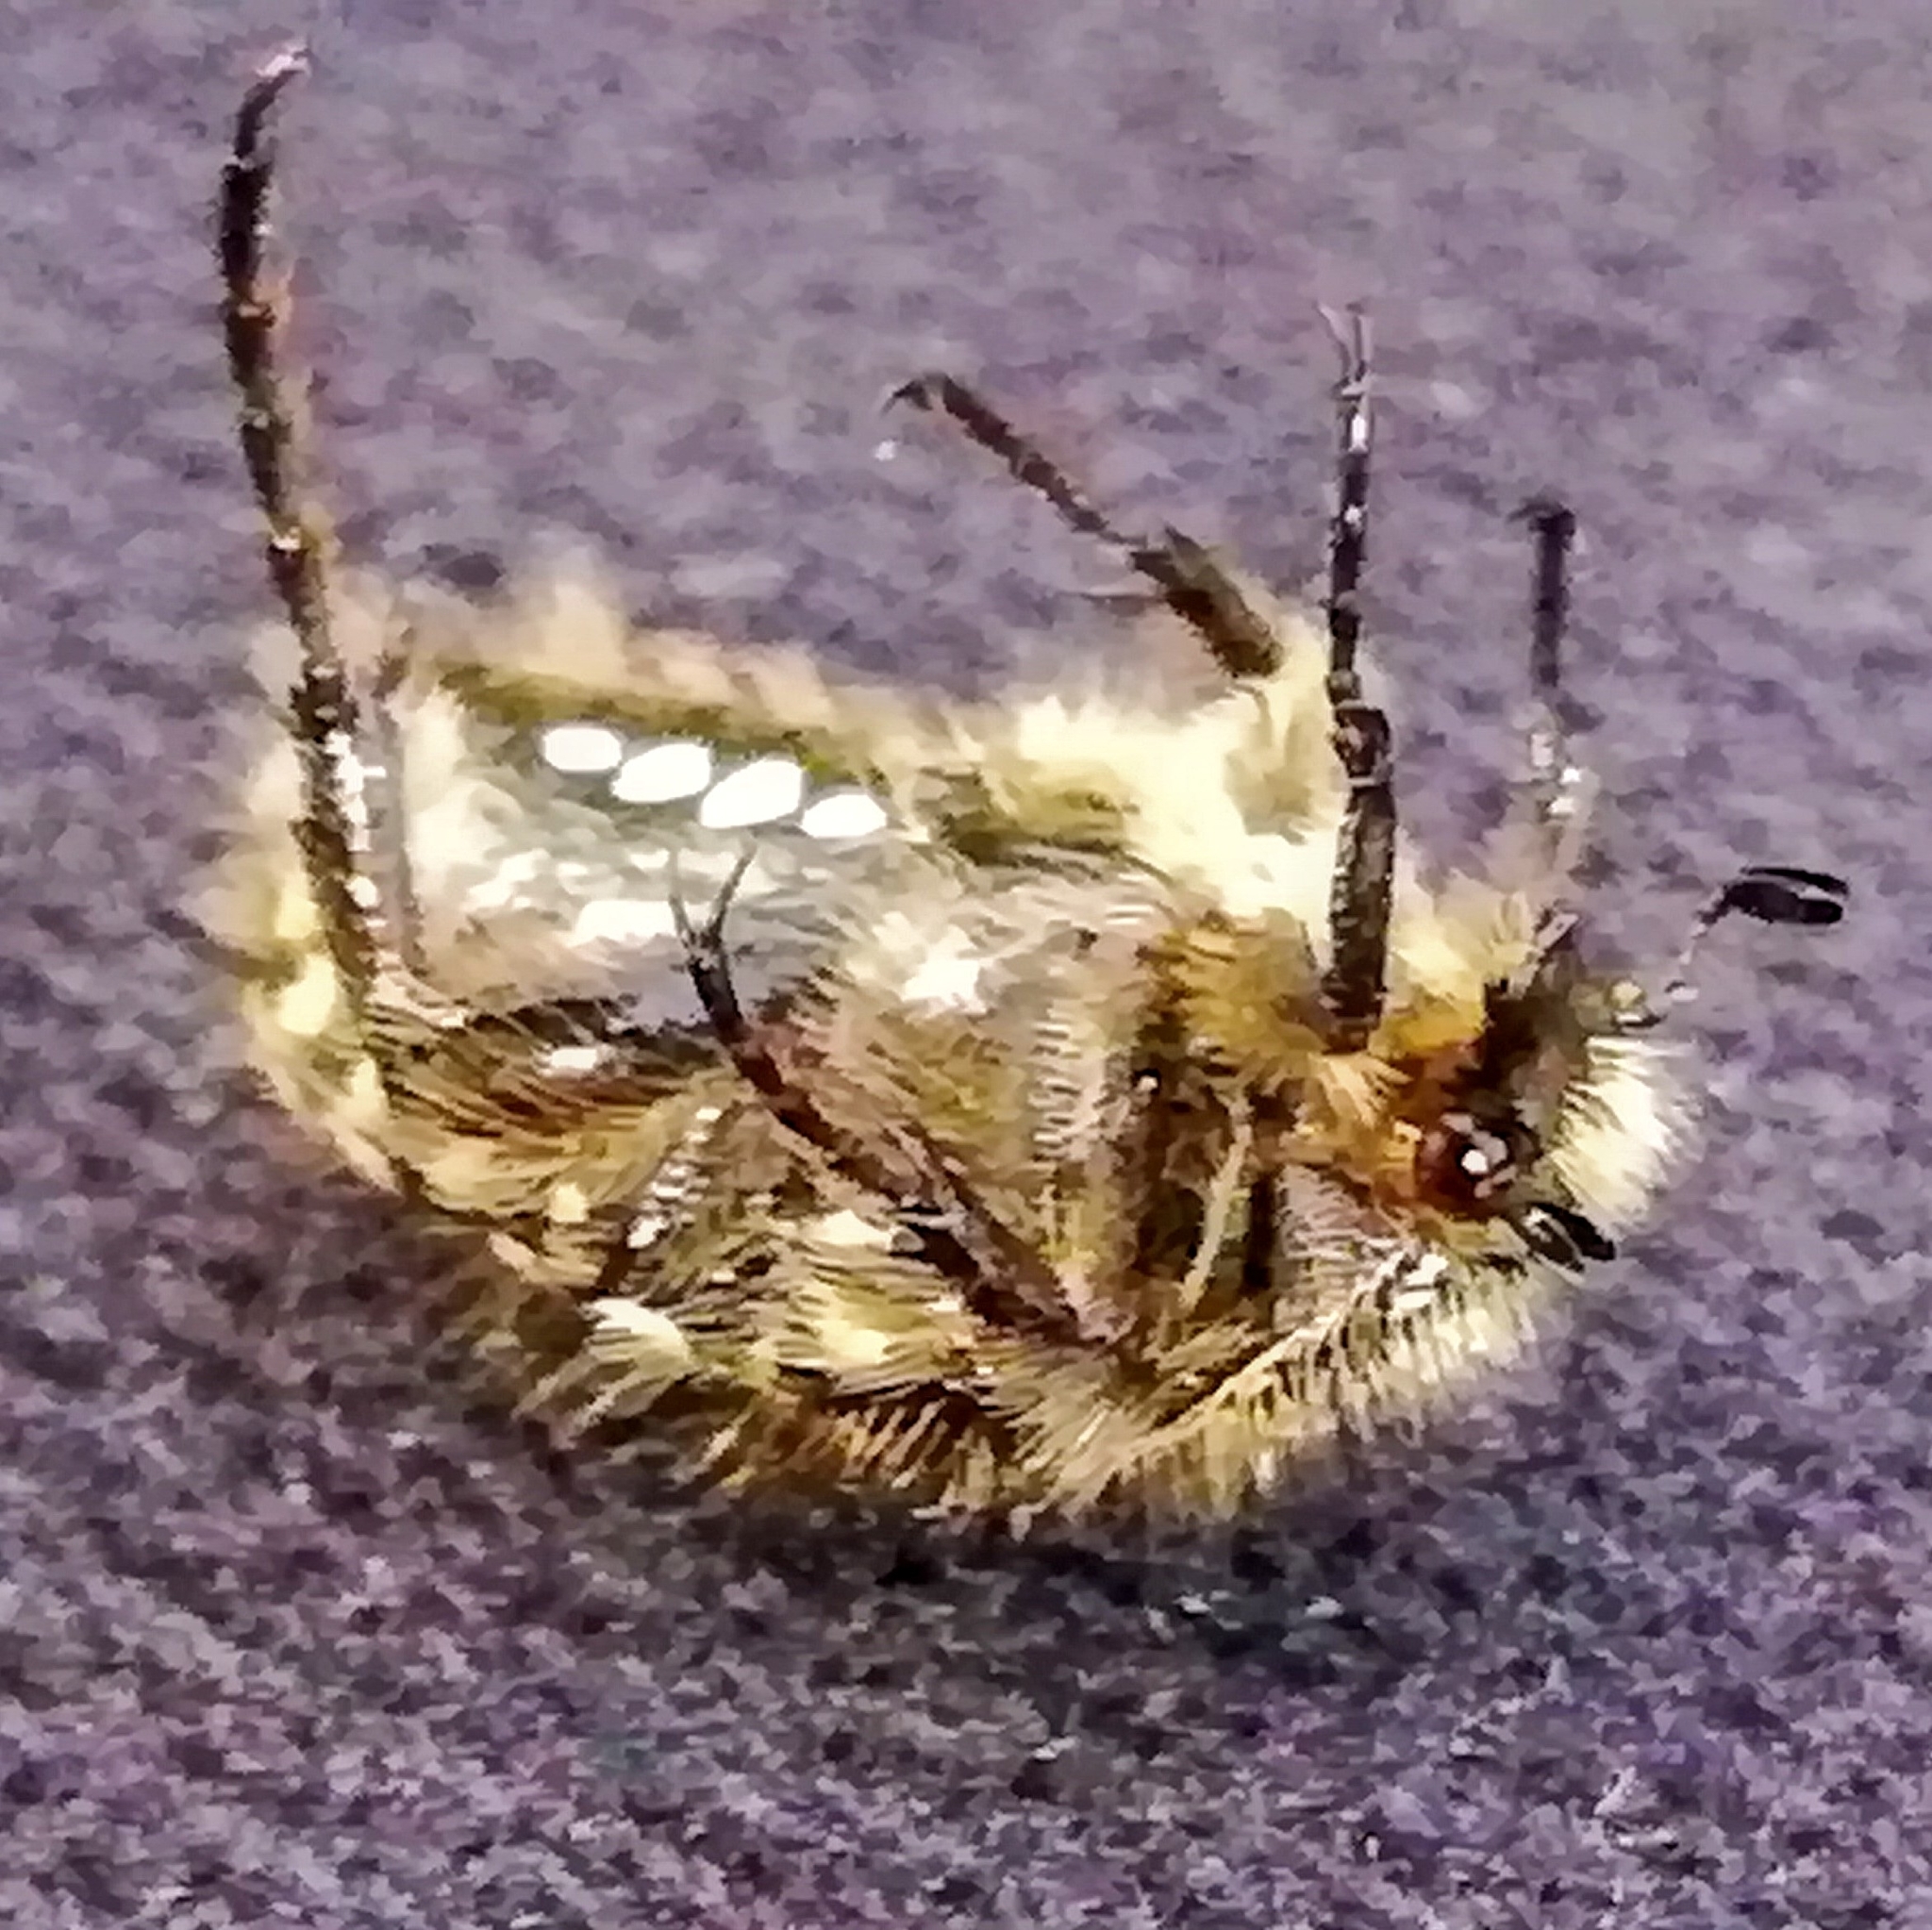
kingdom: Animalia
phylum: Arthropoda
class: Insecta
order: Coleoptera
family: Scarabaeidae
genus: Oxythyrea
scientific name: Oxythyrea funesta
